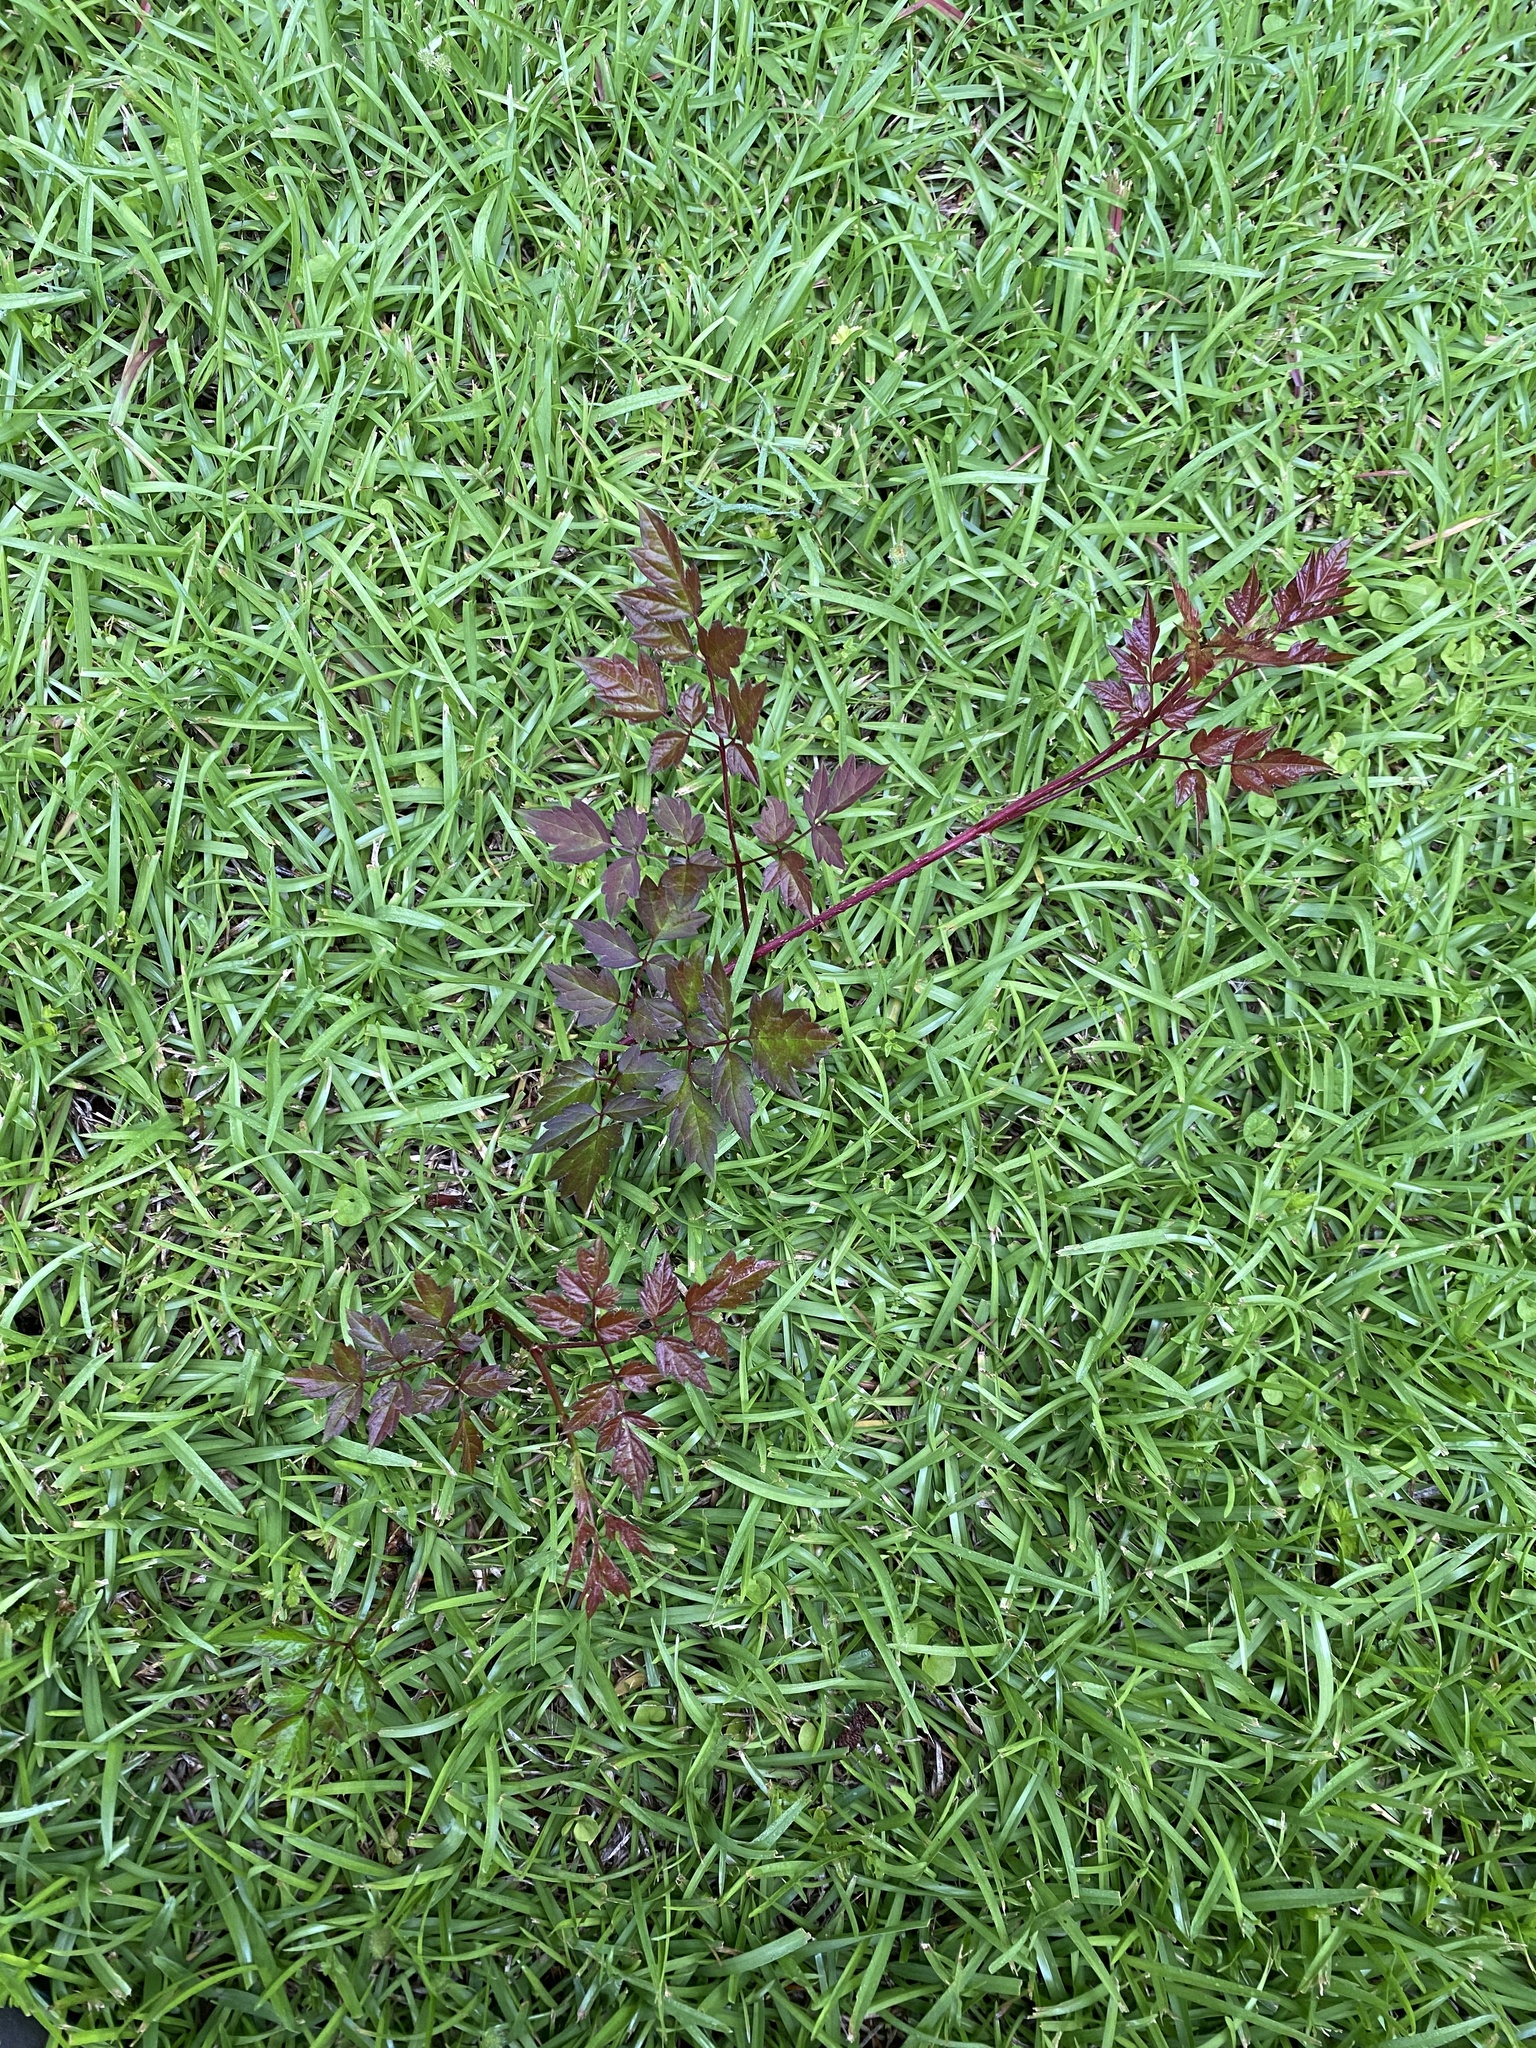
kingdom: Plantae
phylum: Tracheophyta
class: Magnoliopsida
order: Vitales
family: Vitaceae
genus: Nekemias
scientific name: Nekemias arborea
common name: Peppervine
